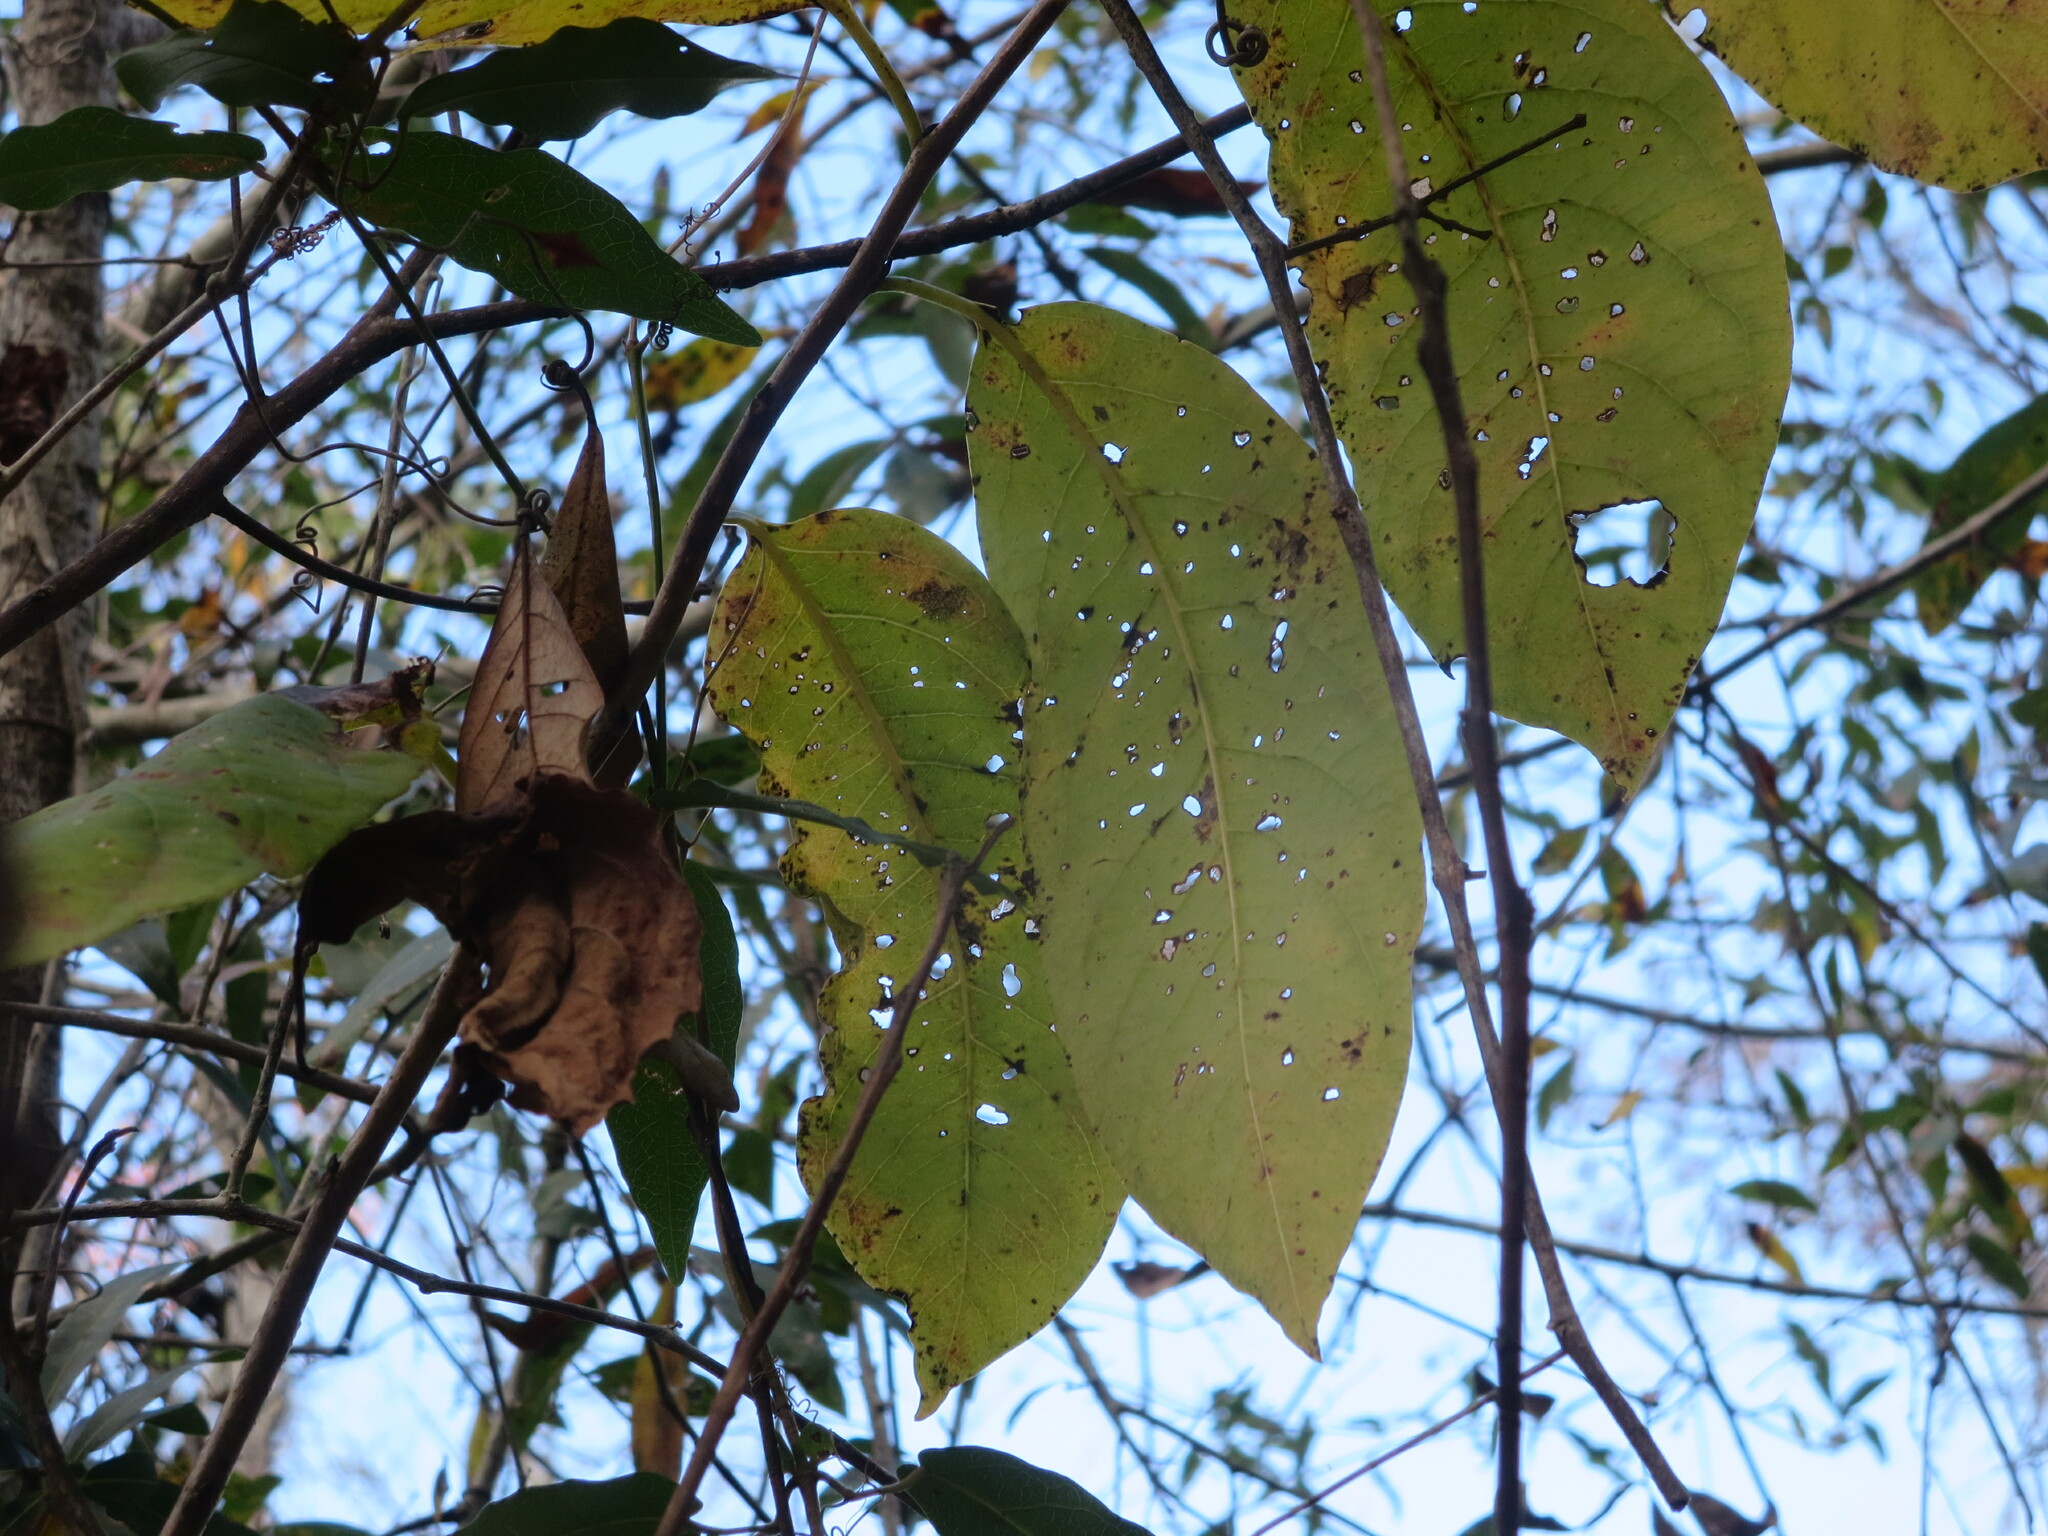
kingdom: Plantae
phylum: Tracheophyta
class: Magnoliopsida
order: Ericales
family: Ebenaceae
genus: Diospyros
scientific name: Diospyros virginiana
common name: Persimmon
